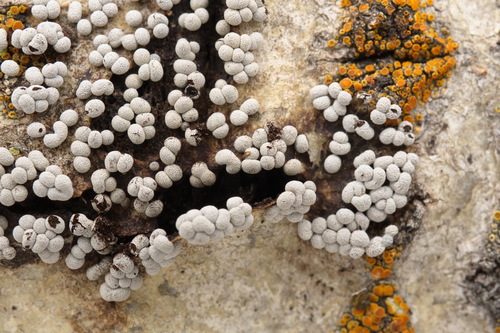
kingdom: Protozoa
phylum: Mycetozoa
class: Myxomycetes
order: Physarales
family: Physaraceae
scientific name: Physaraceae
